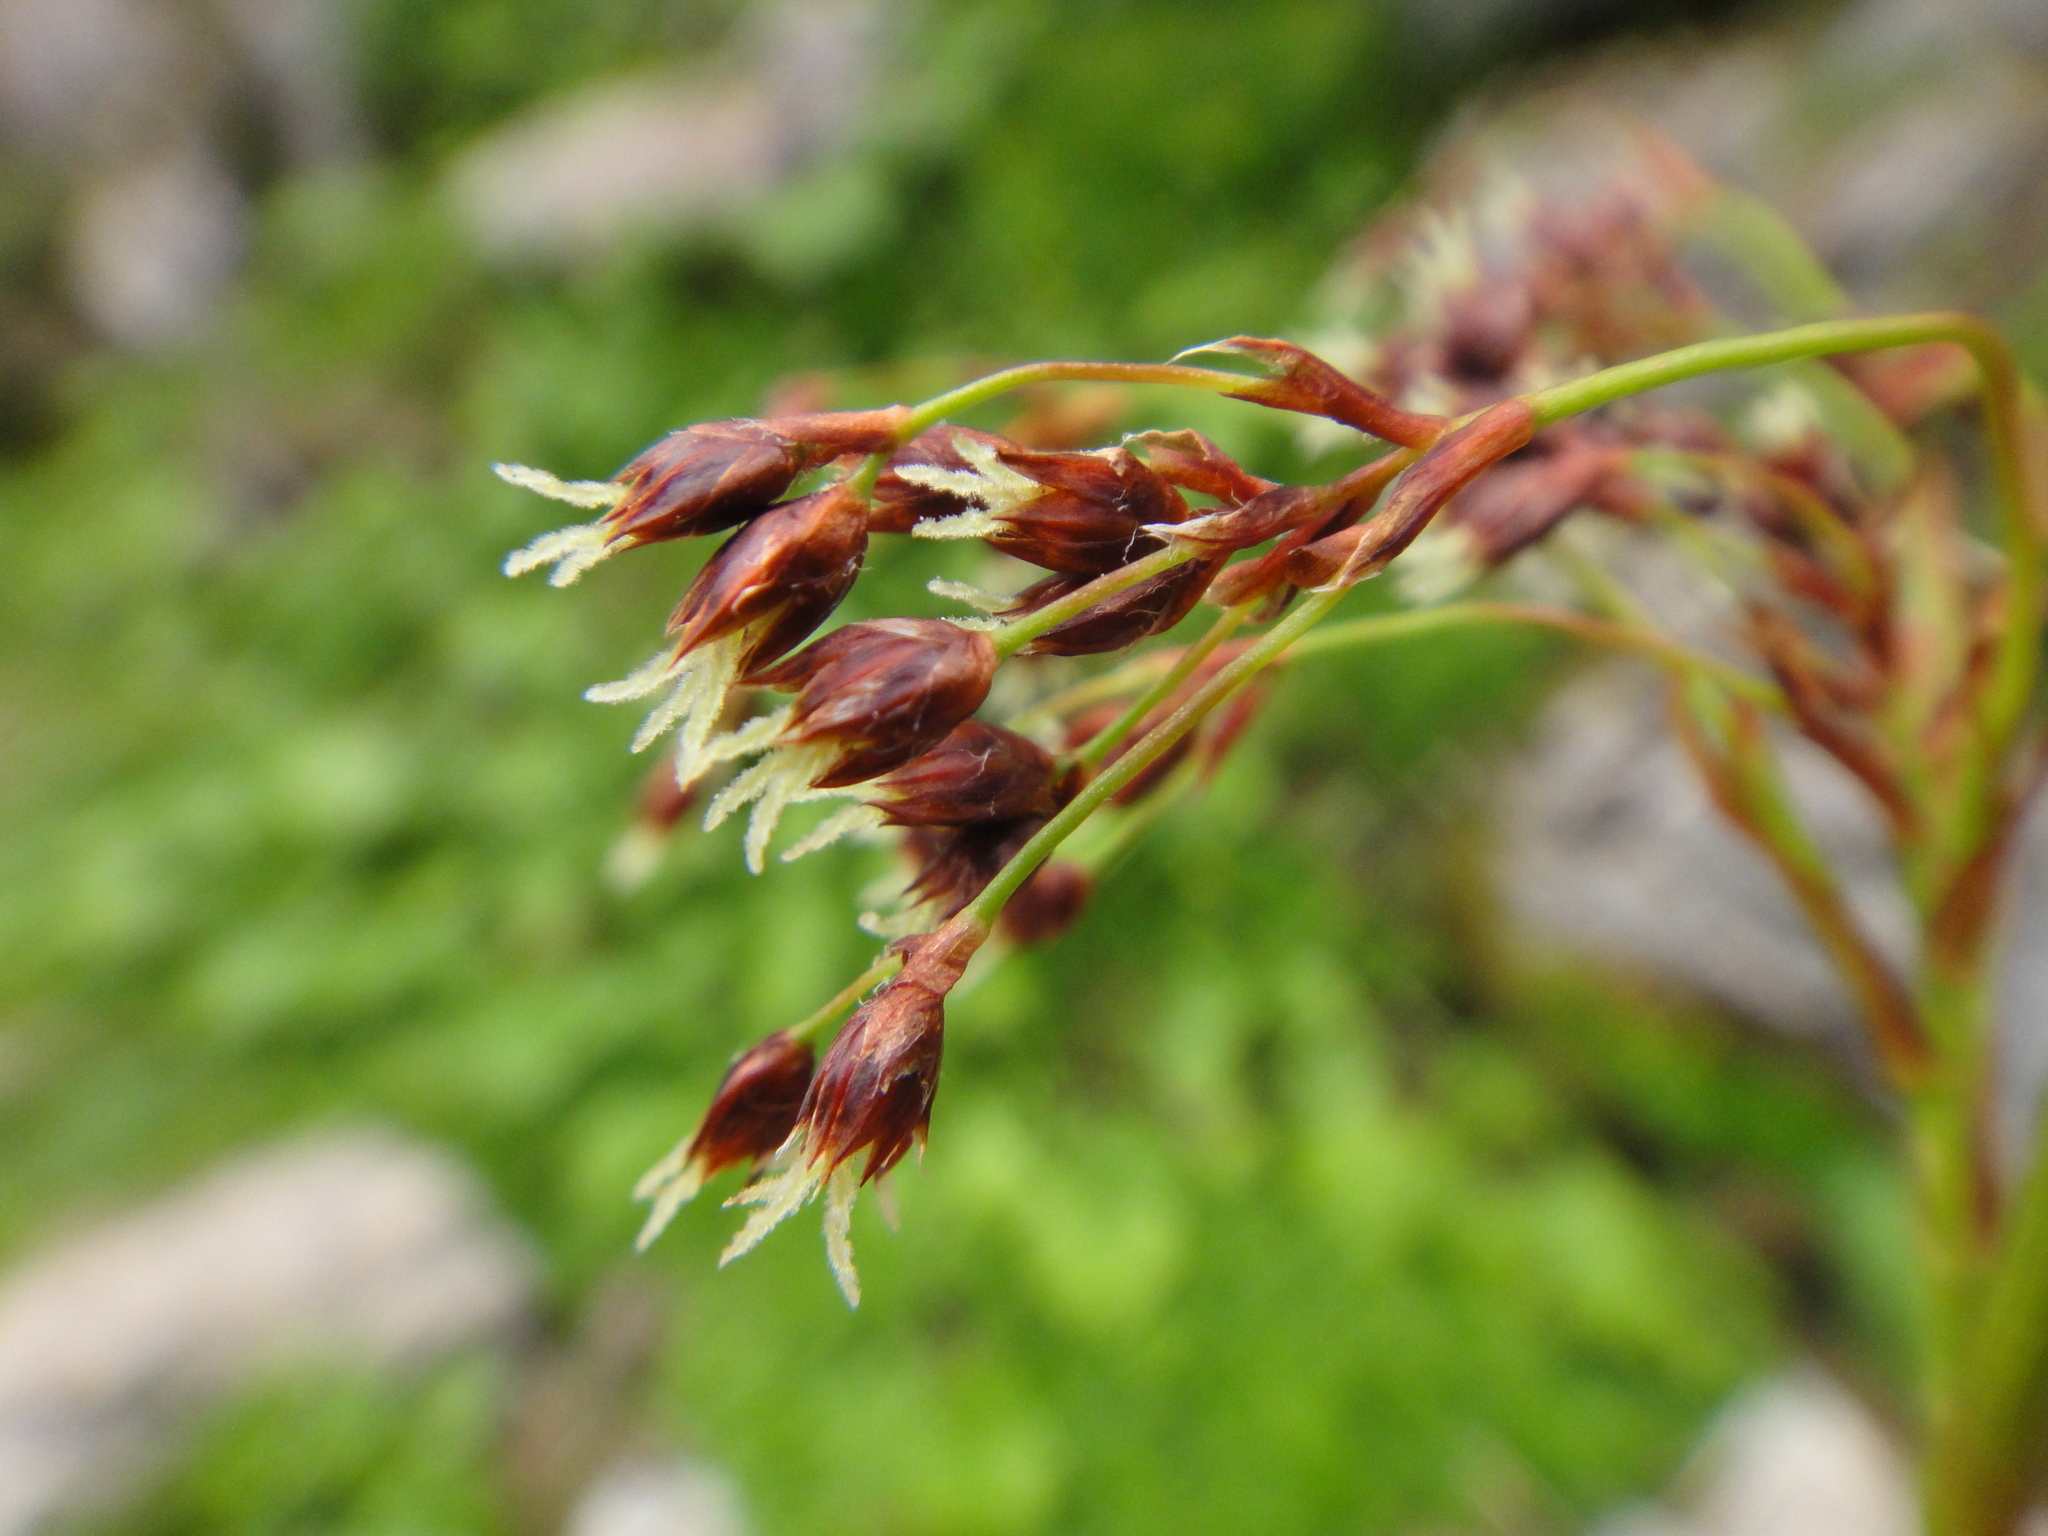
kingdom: Plantae
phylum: Tracheophyta
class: Liliopsida
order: Poales
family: Juncaceae
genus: Luzula
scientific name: Luzula glabrata
